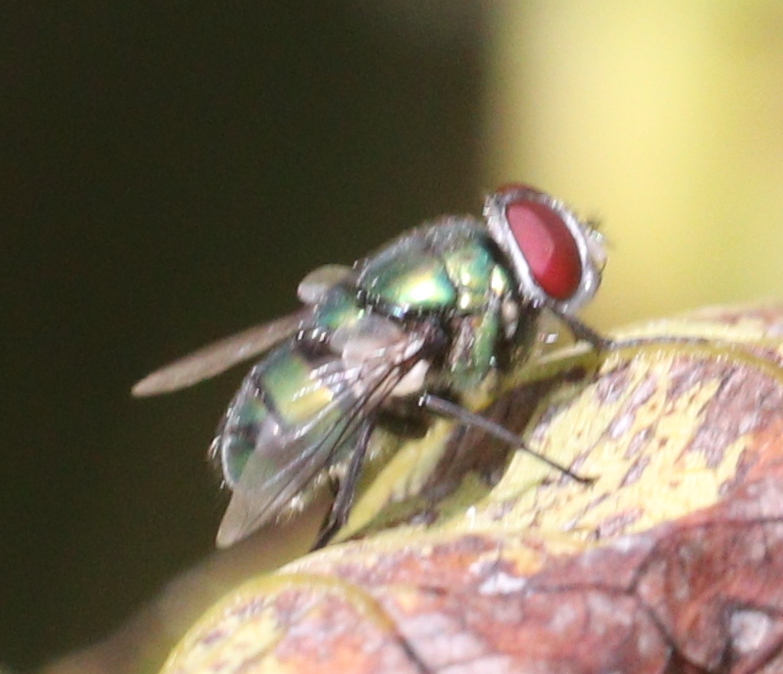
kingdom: Animalia
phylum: Arthropoda
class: Insecta
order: Diptera
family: Calliphoridae
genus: Chrysomya
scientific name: Chrysomya albiceps
